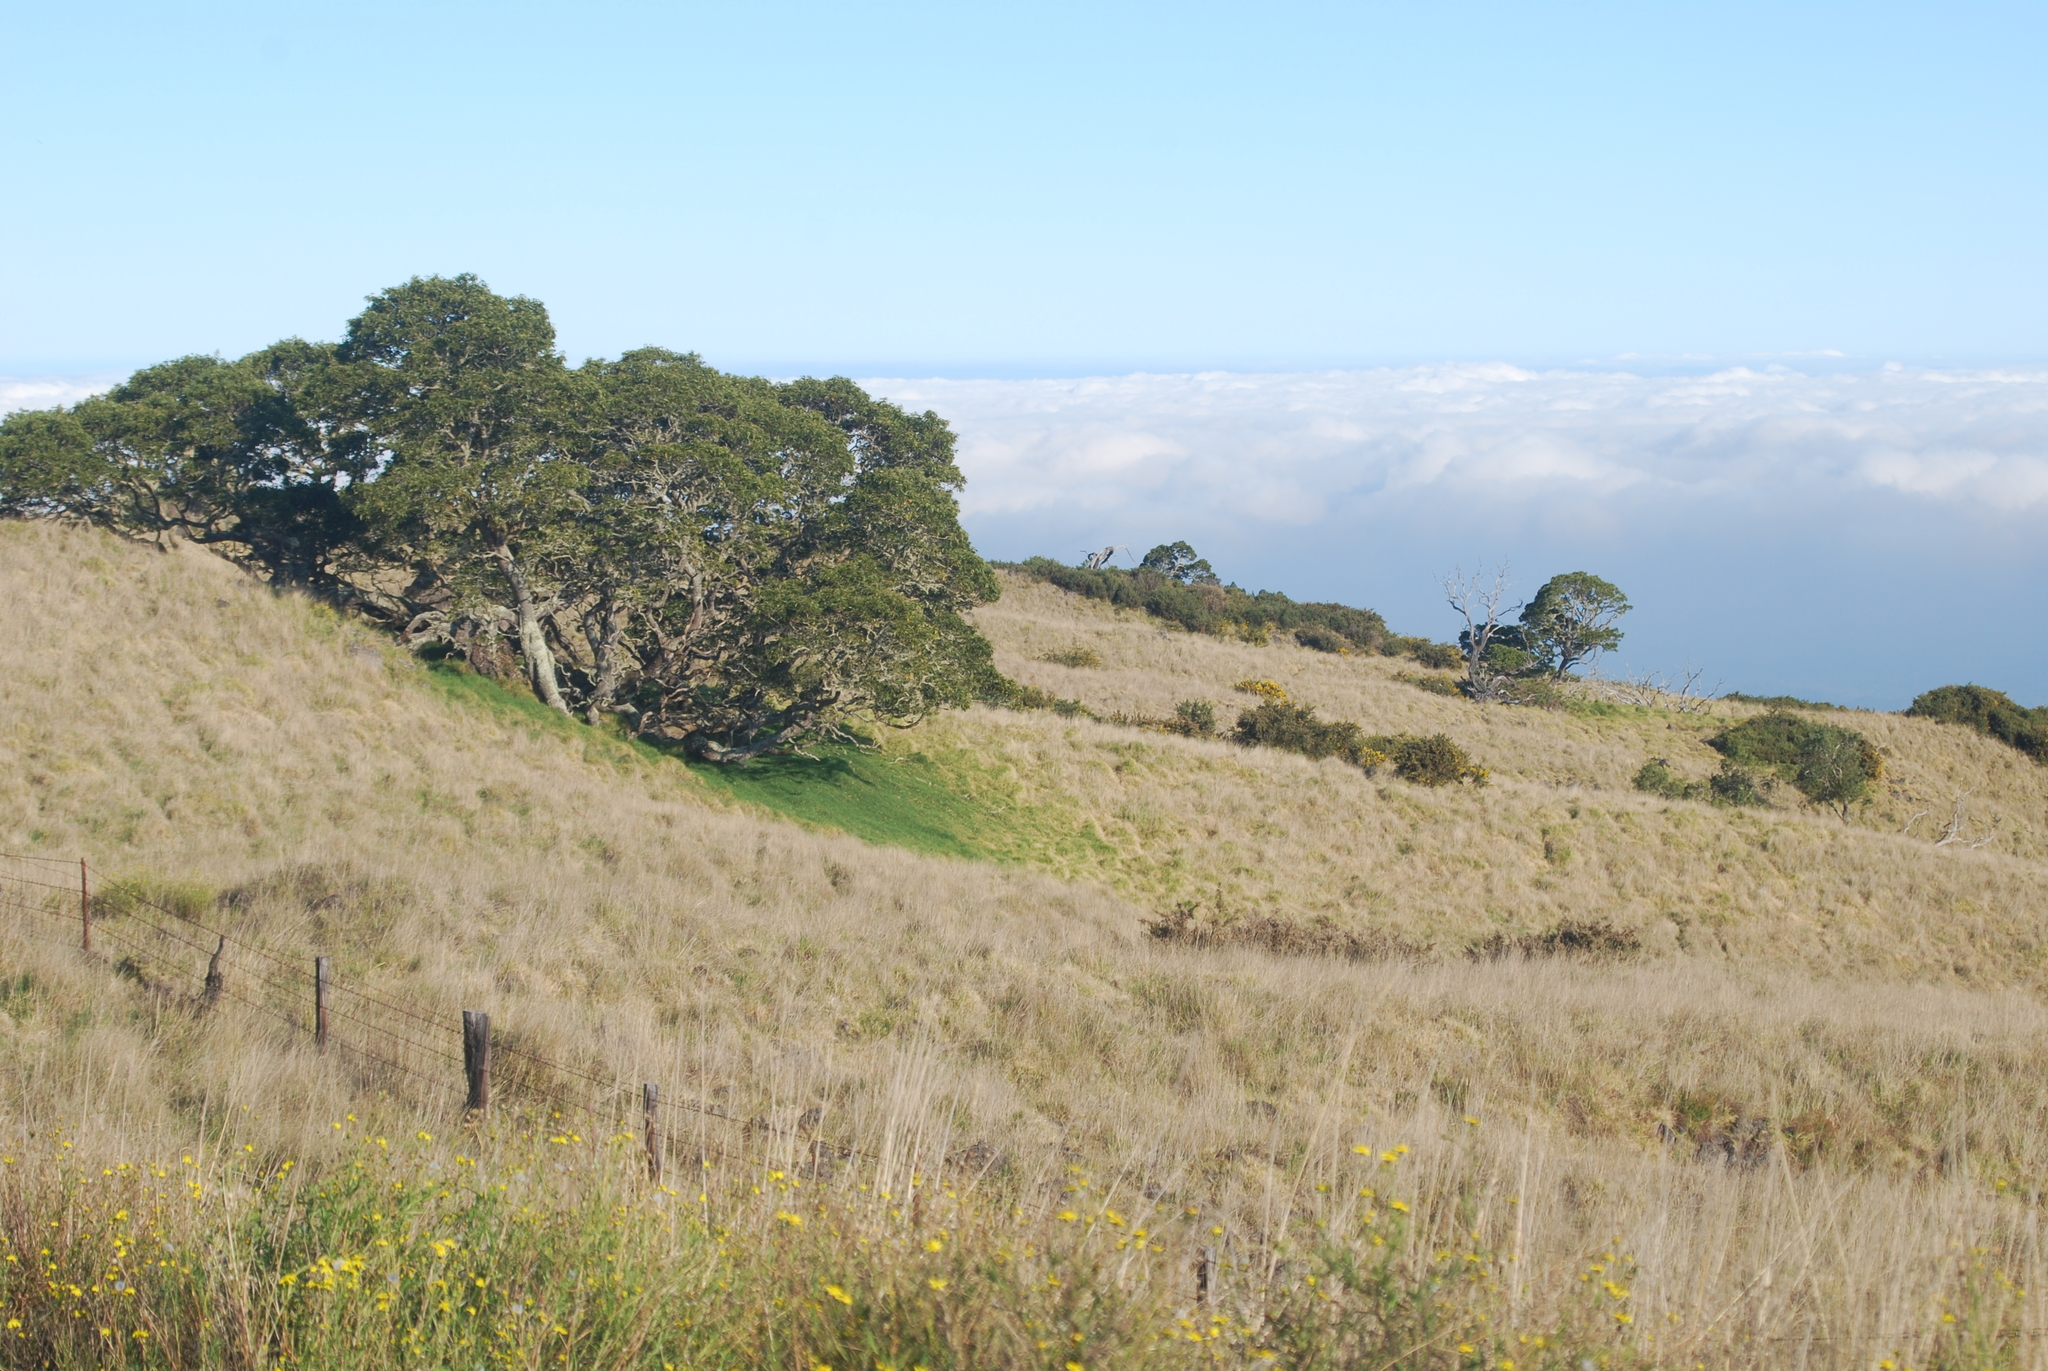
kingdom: Plantae
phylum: Tracheophyta
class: Magnoliopsida
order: Fabales
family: Fabaceae
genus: Acacia
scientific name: Acacia koa
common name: Gray koa
